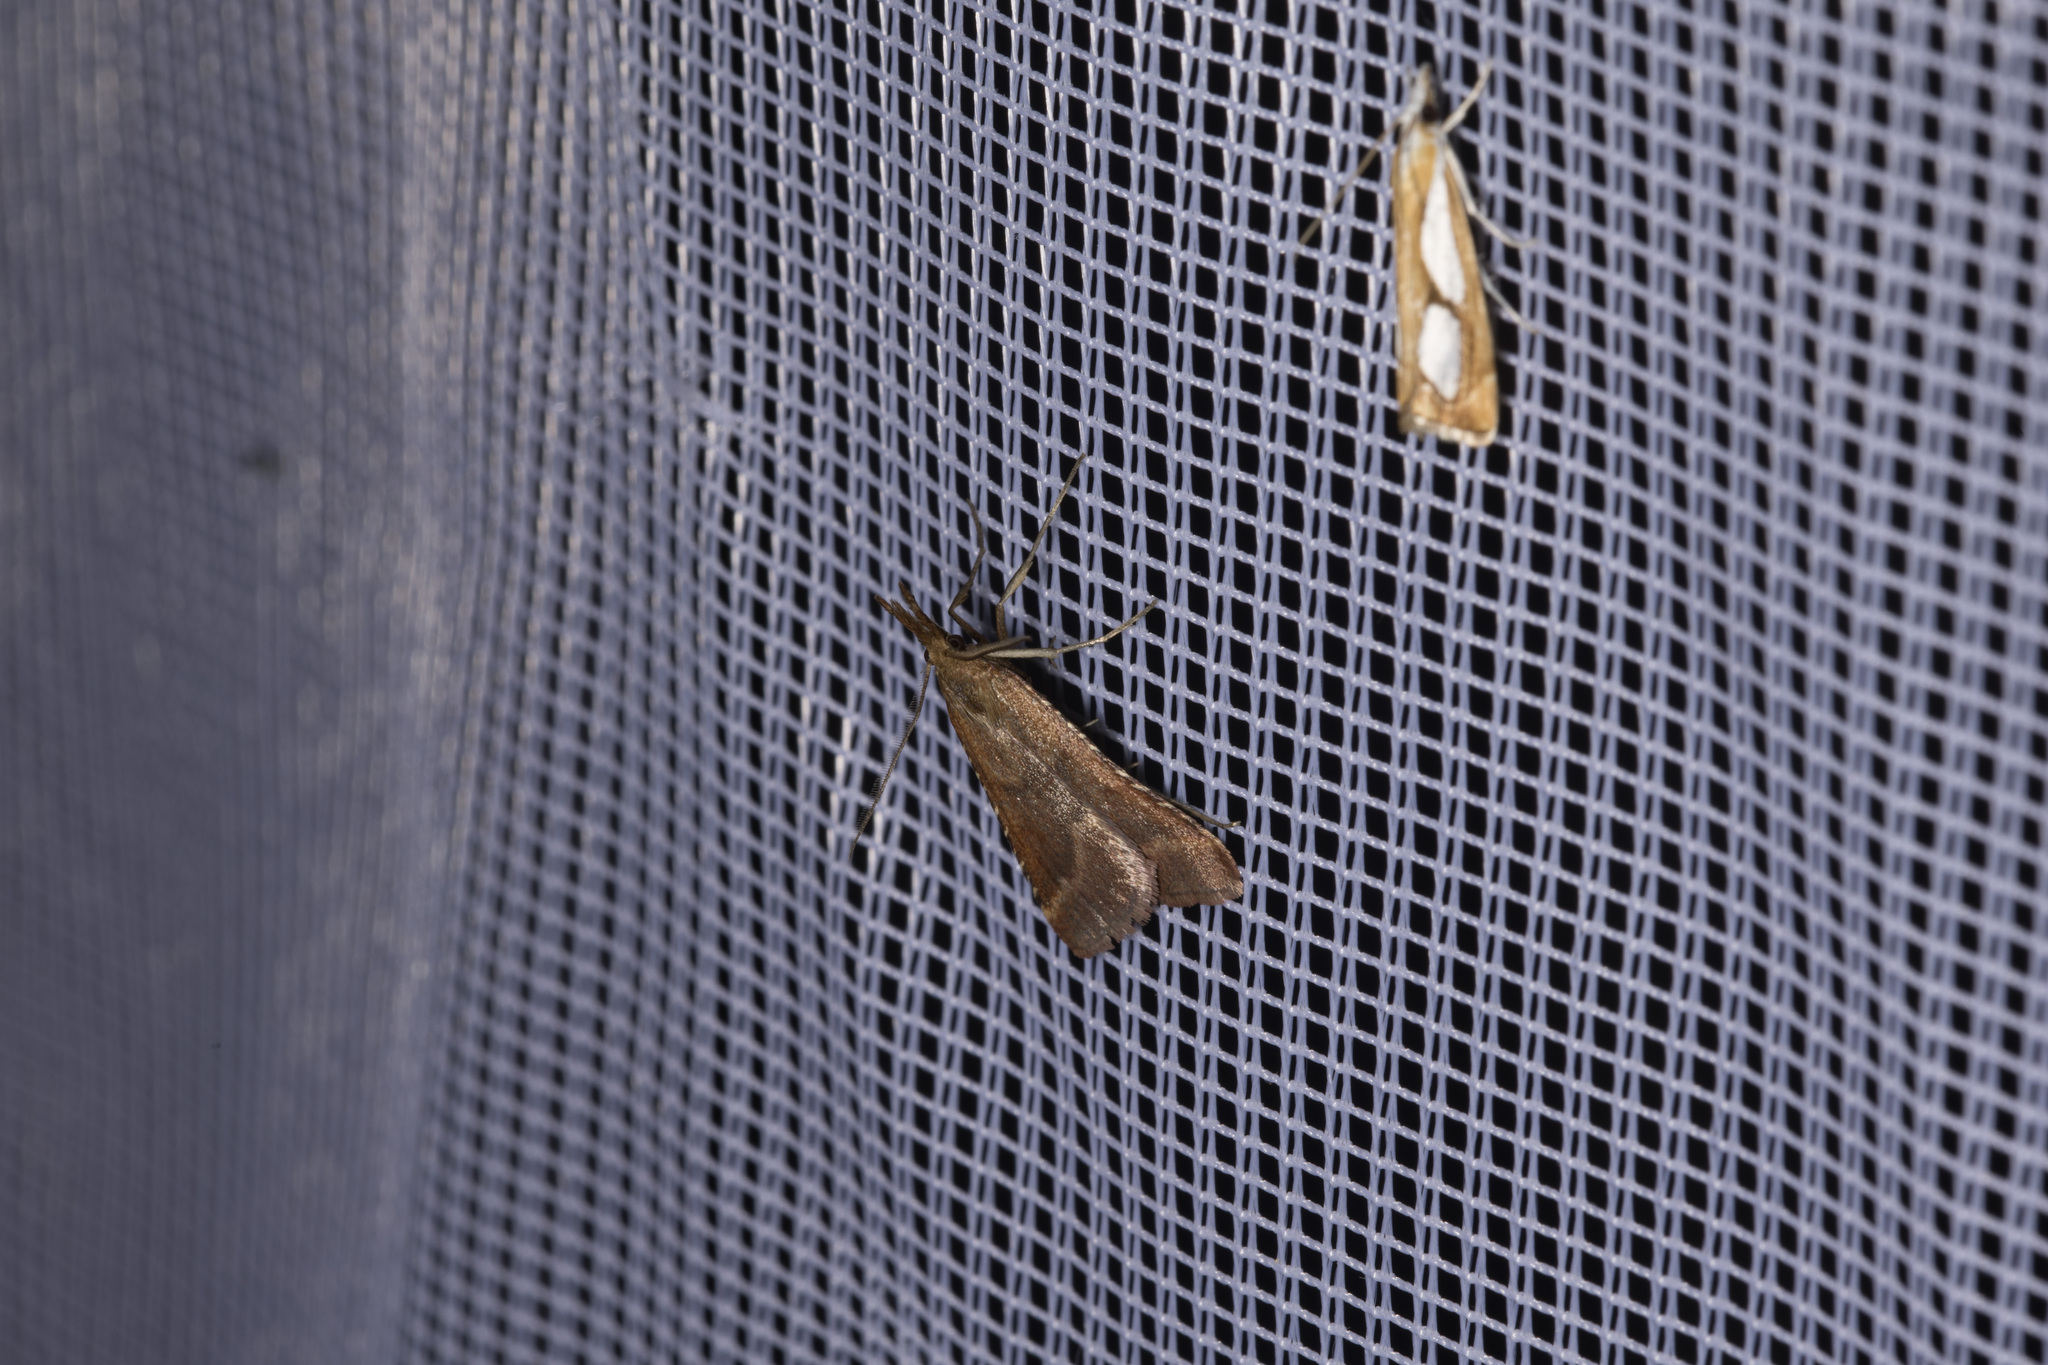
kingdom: Animalia
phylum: Arthropoda
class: Insecta
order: Lepidoptera
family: Pyralidae
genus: Synaphe
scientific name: Synaphe punctalis
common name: Long-legged tabby
